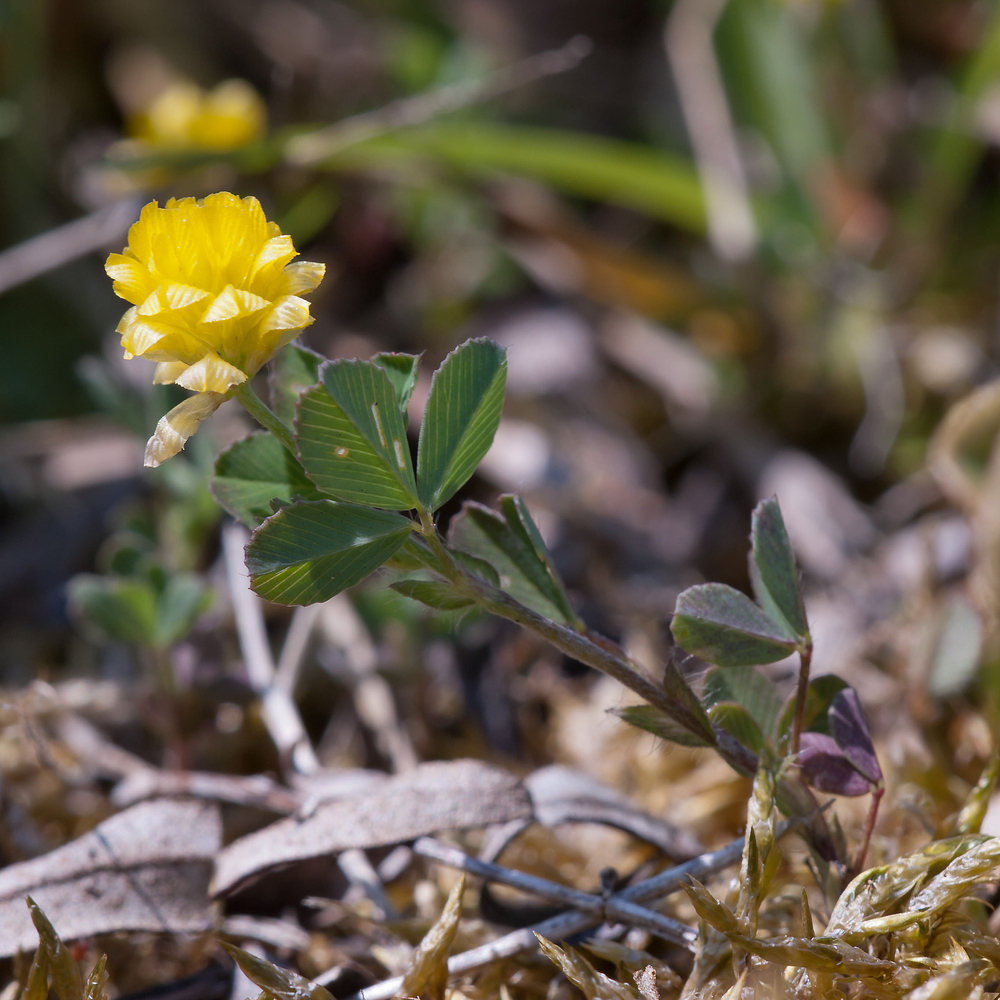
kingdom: Plantae
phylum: Tracheophyta
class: Magnoliopsida
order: Fabales
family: Fabaceae
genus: Trifolium
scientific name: Trifolium campestre
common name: Field clover
